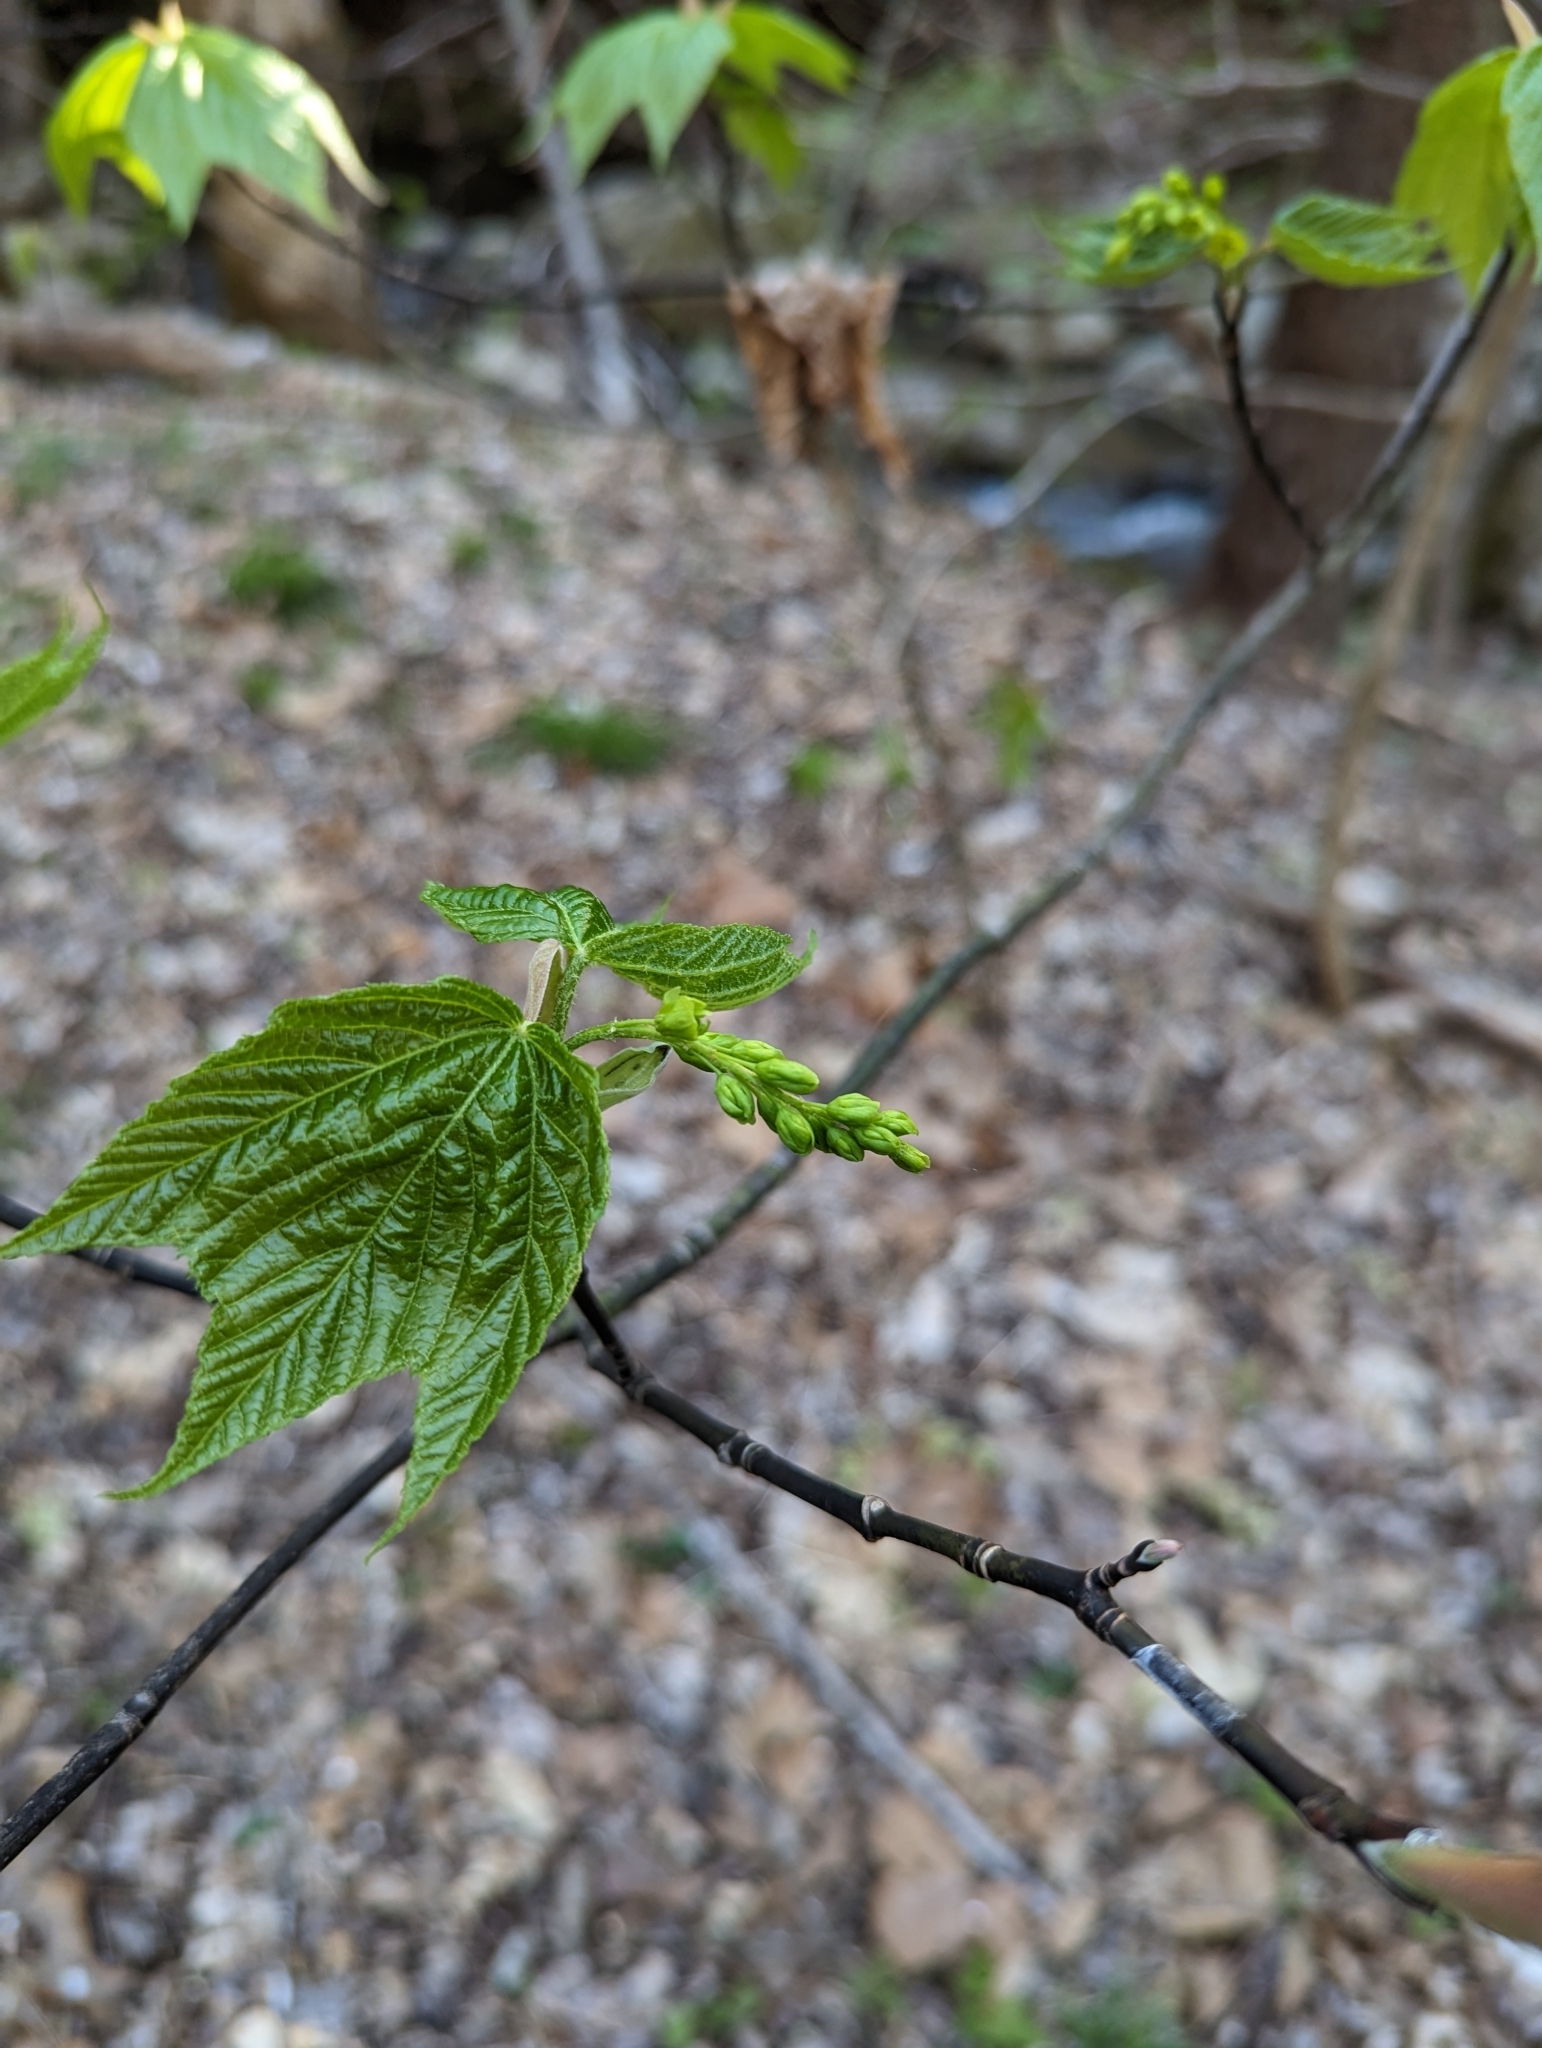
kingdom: Plantae
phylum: Tracheophyta
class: Magnoliopsida
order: Sapindales
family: Sapindaceae
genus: Acer
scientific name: Acer pensylvanicum
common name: Moosewood
